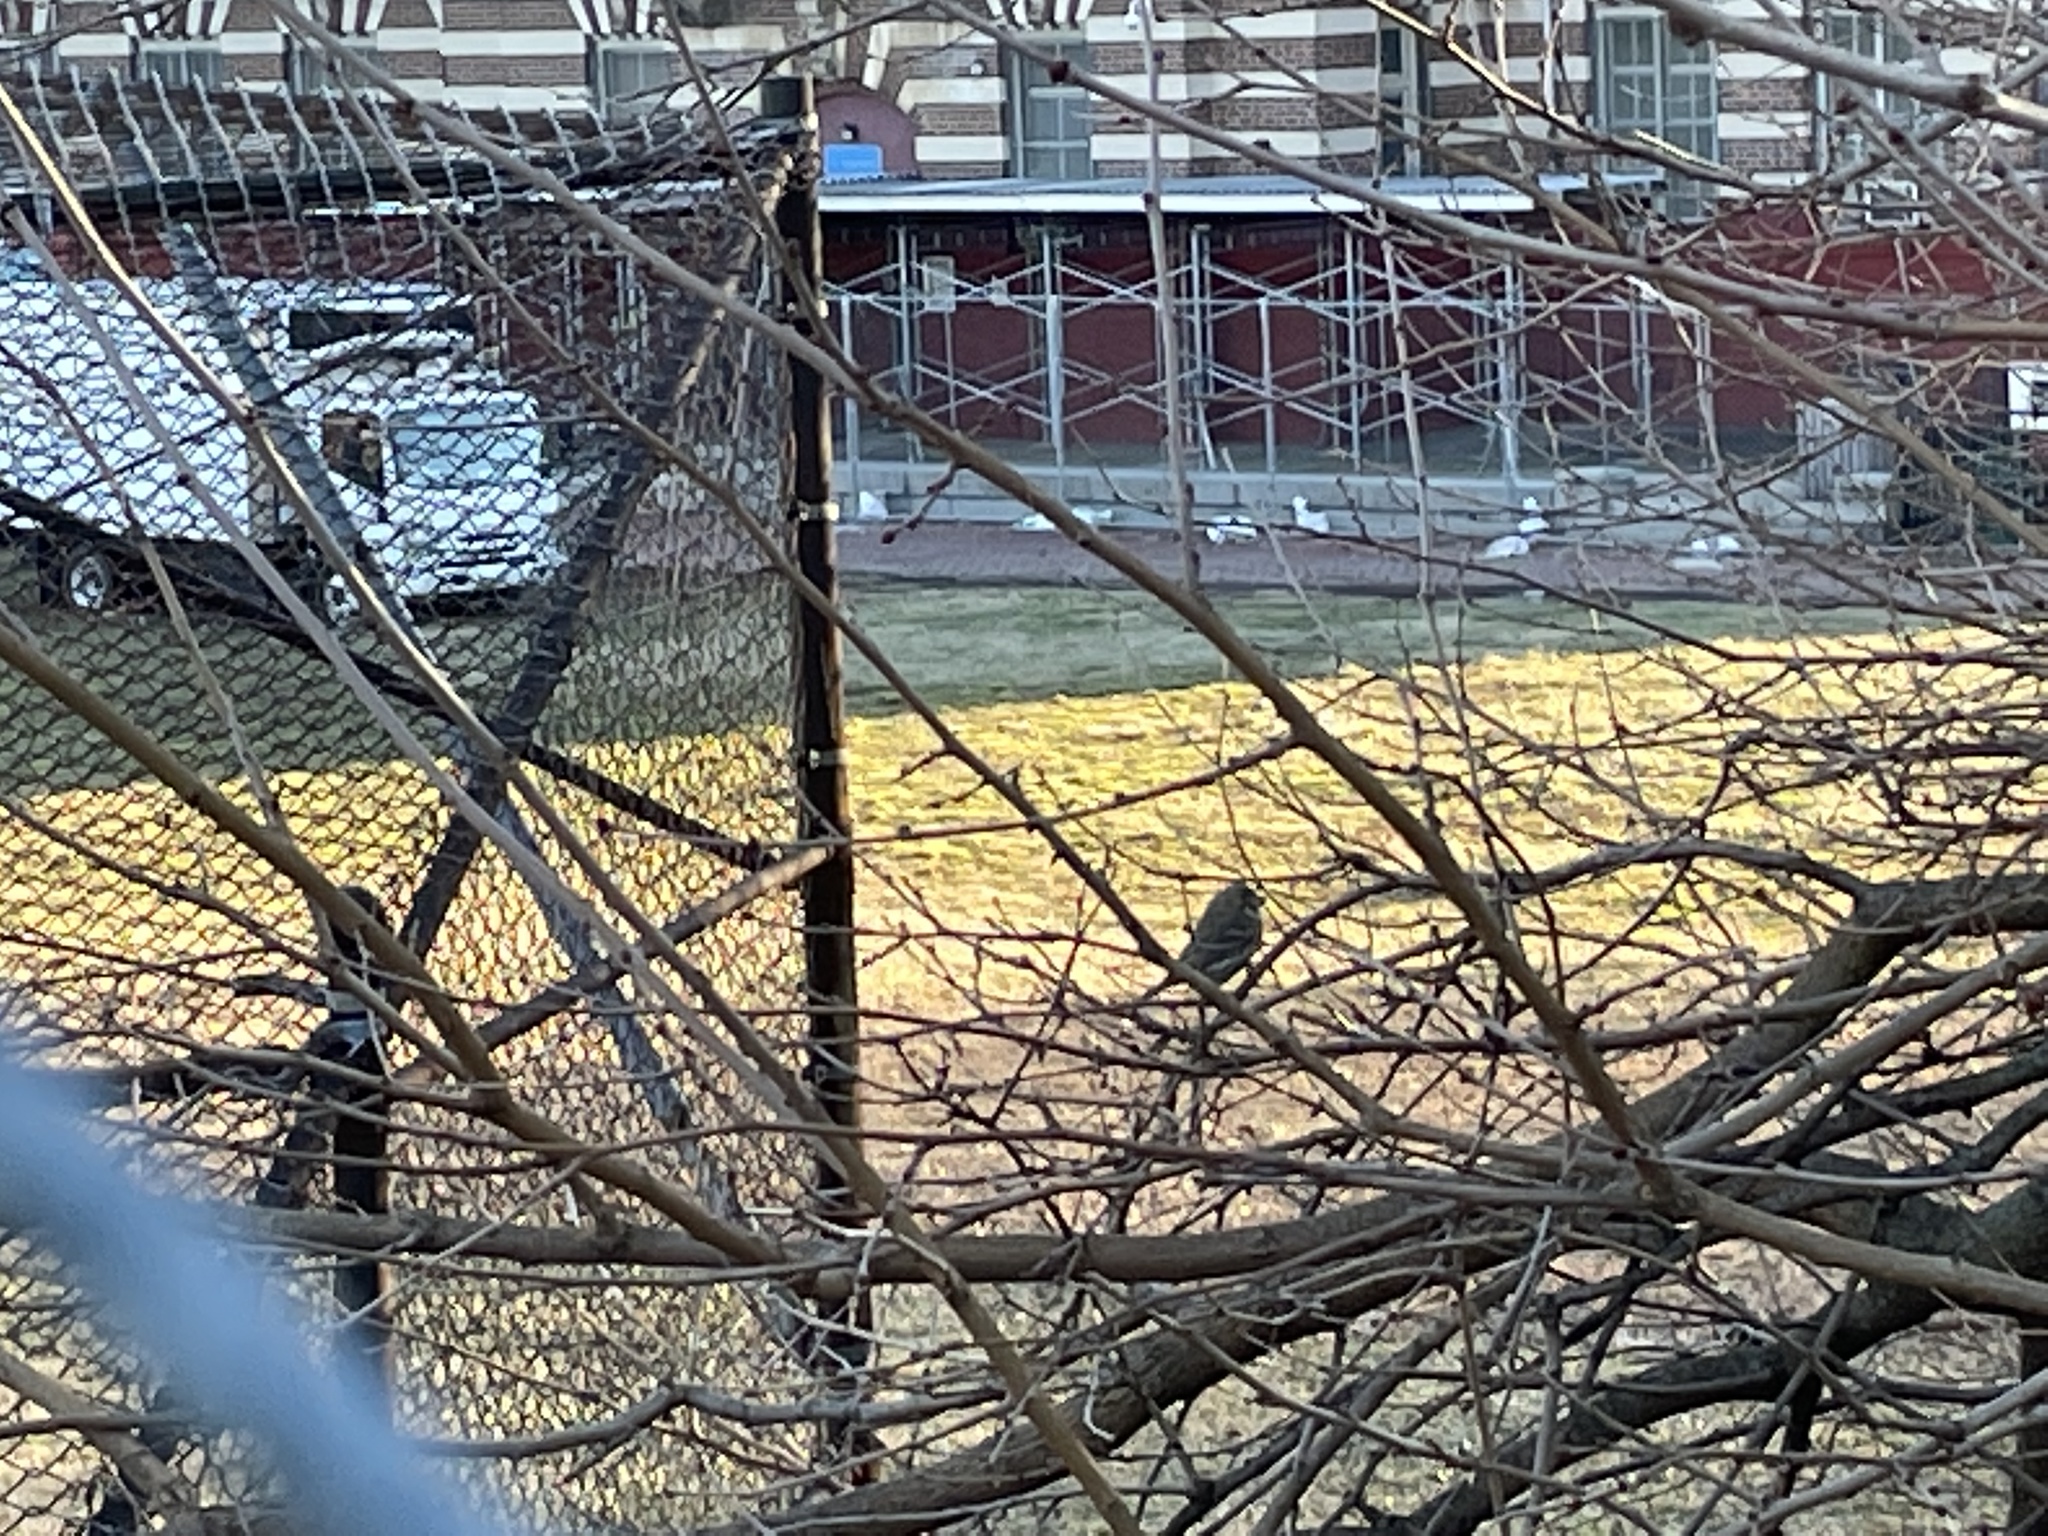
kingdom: Animalia
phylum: Chordata
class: Aves
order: Passeriformes
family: Fringillidae
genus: Haemorhous
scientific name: Haemorhous mexicanus
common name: House finch
